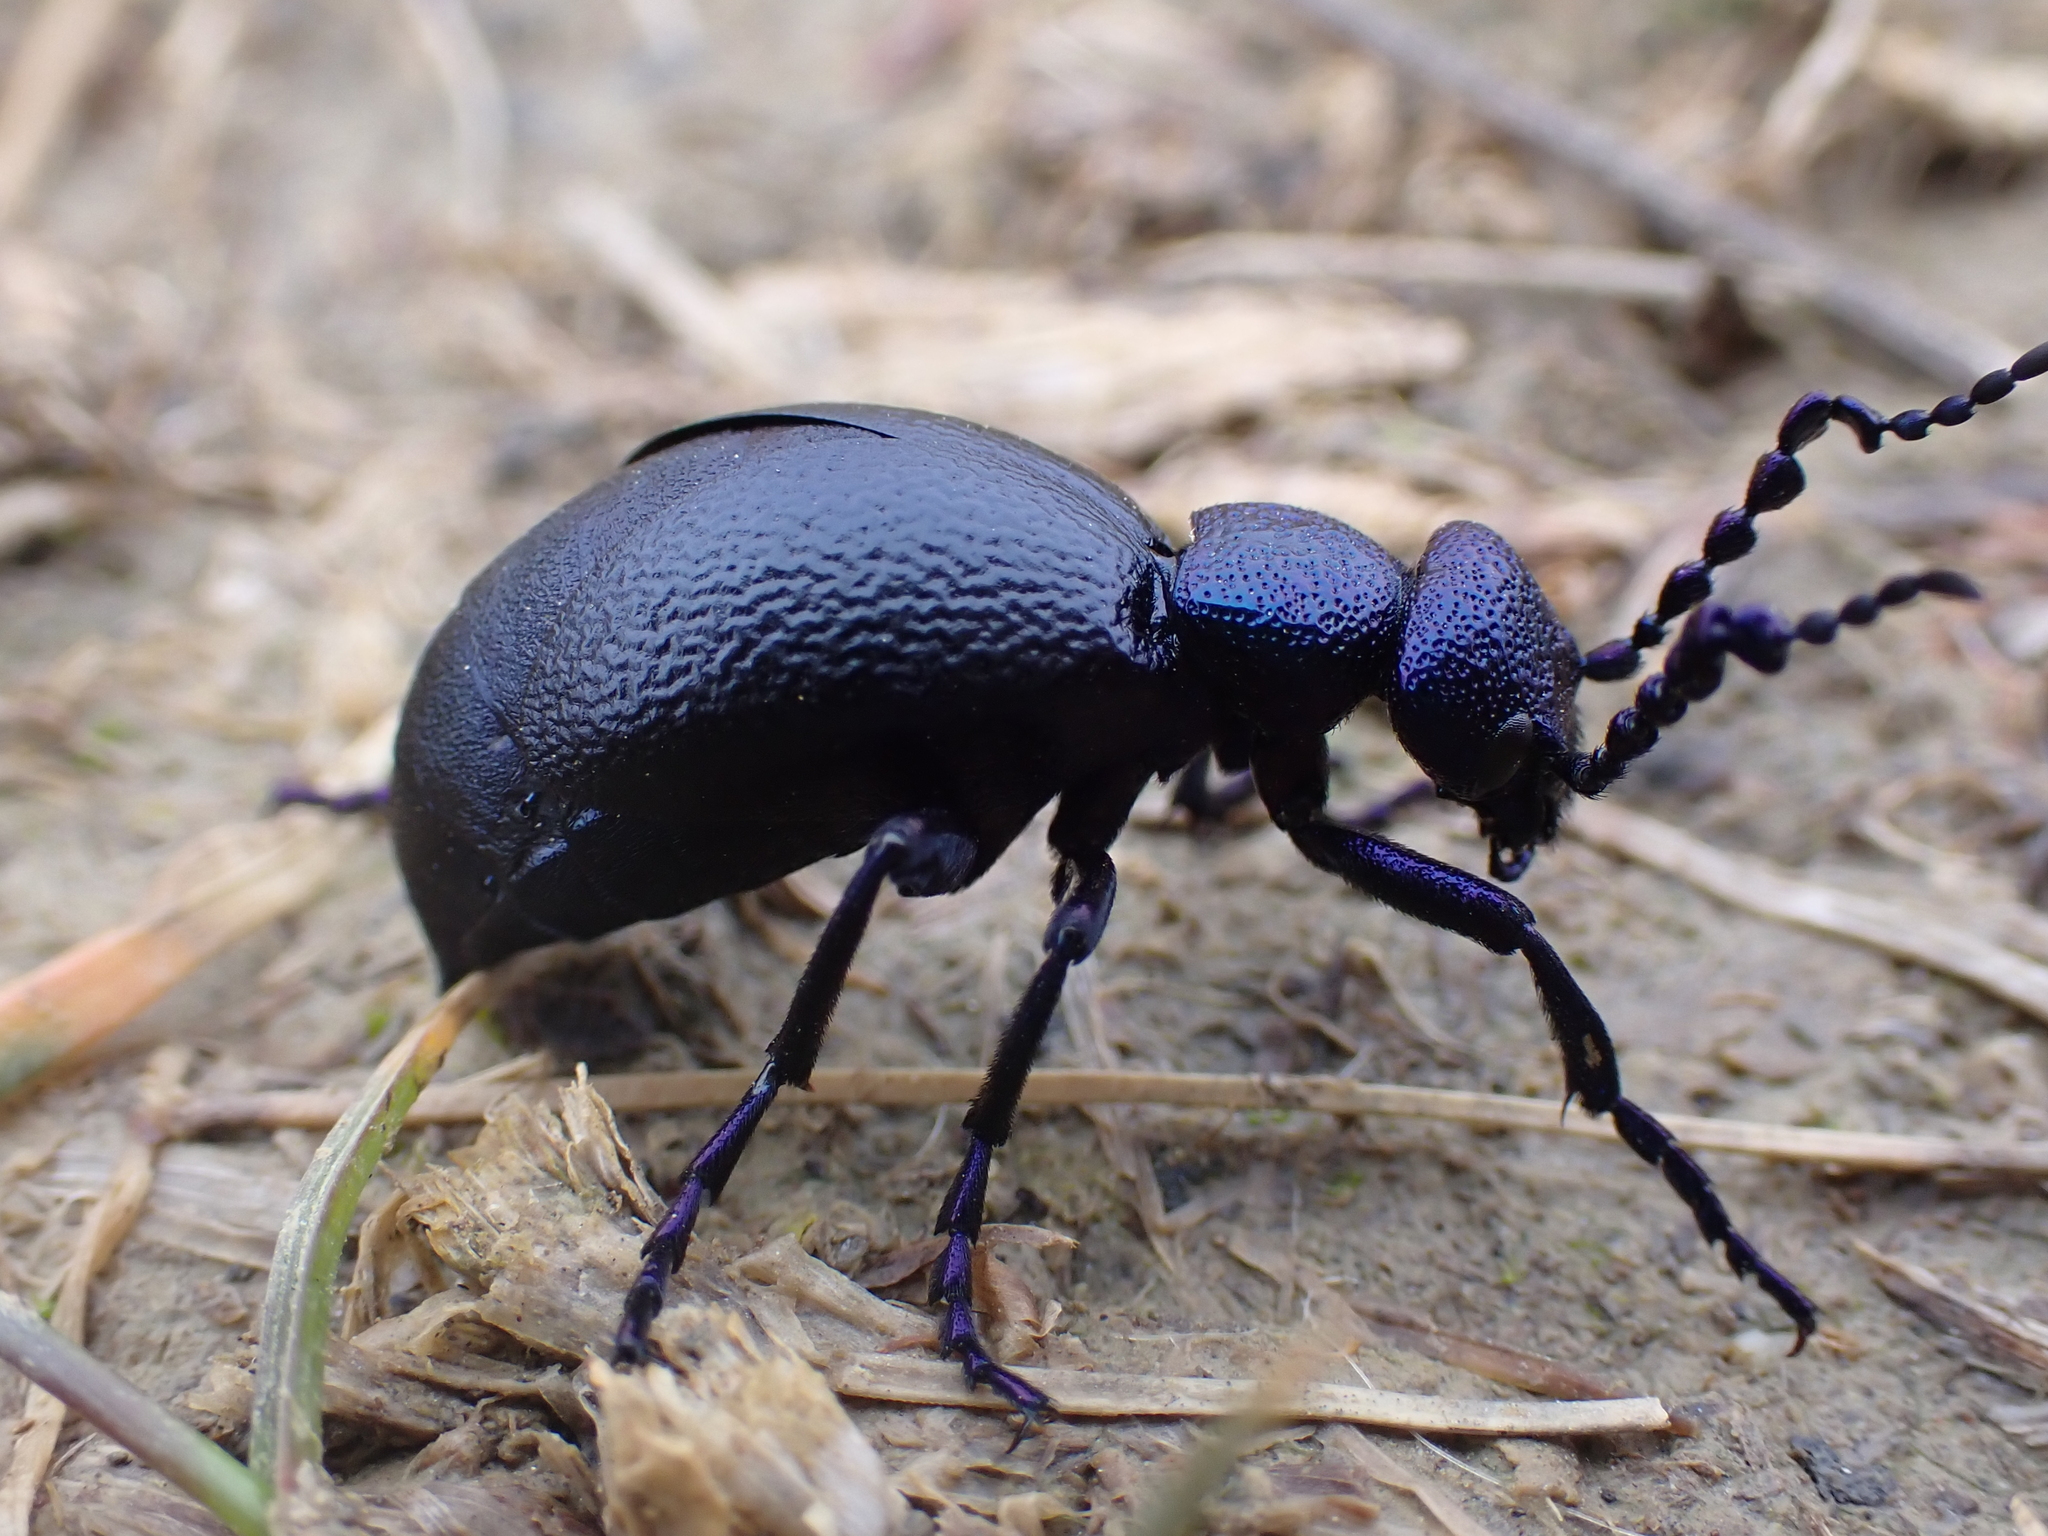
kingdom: Animalia
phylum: Arthropoda
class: Insecta
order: Coleoptera
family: Meloidae
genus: Meloe
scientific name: Meloe proscarabaeus
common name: Black oil-beetle
